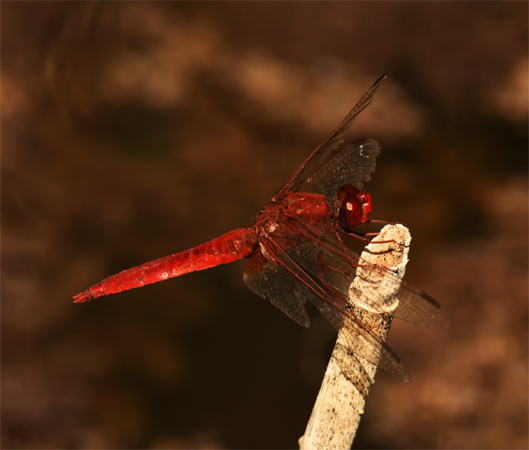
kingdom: Animalia
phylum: Arthropoda
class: Insecta
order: Odonata
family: Libellulidae
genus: Crocothemis
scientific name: Crocothemis erythraea
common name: Scarlet dragonfly
